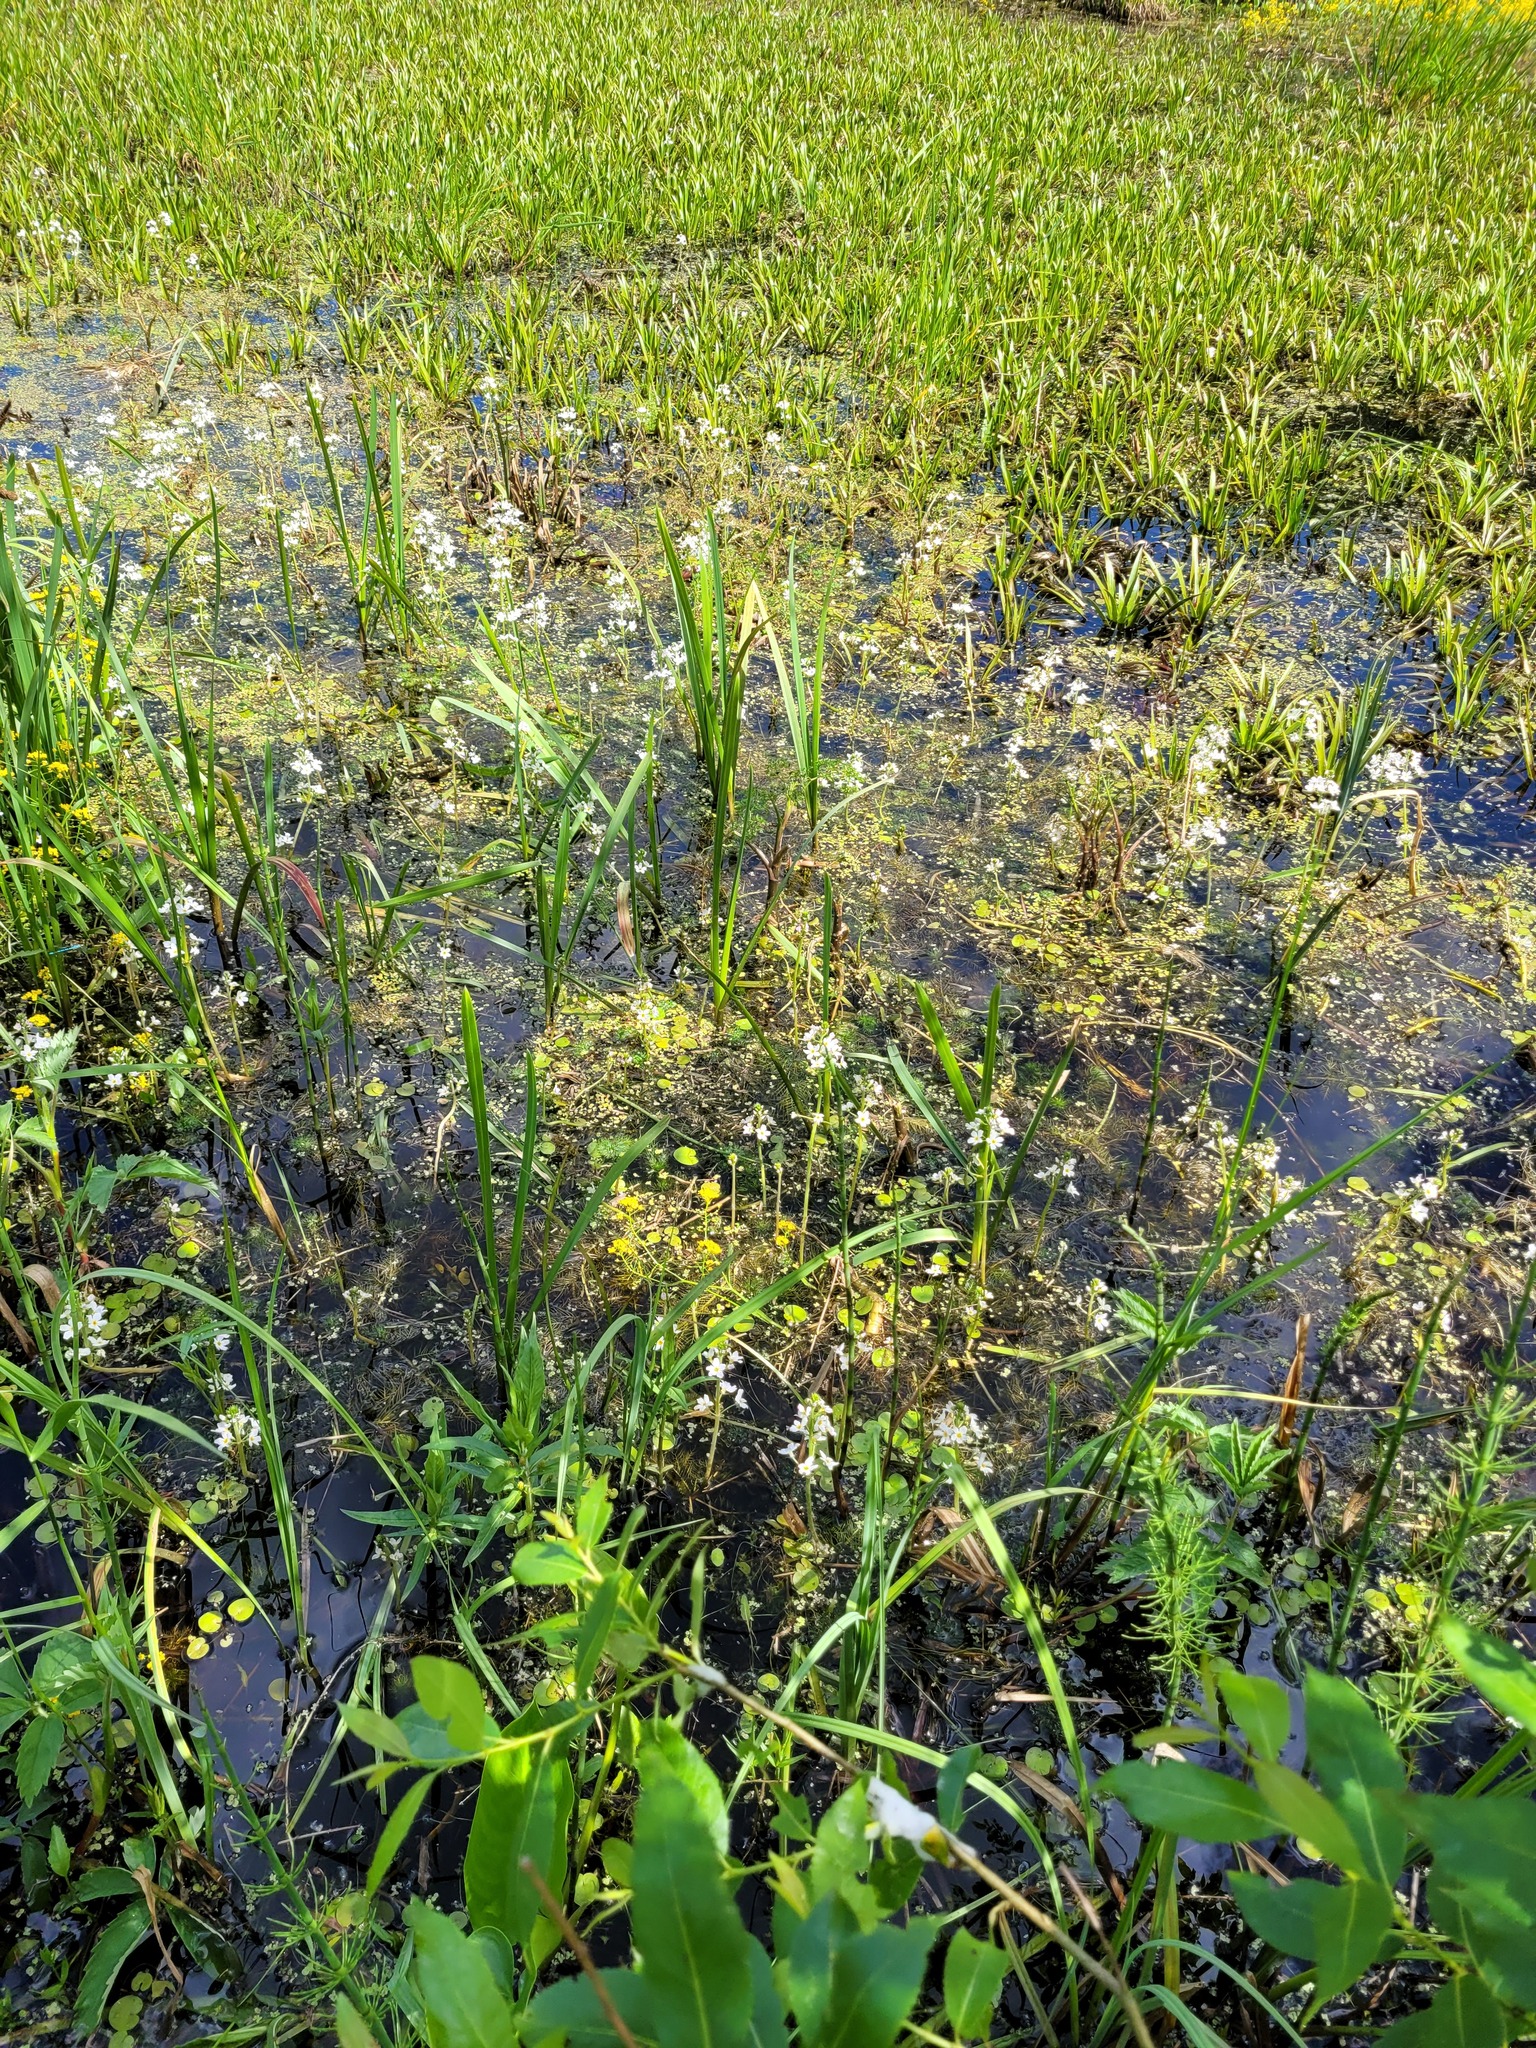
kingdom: Plantae
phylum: Tracheophyta
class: Magnoliopsida
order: Ericales
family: Primulaceae
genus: Hottonia
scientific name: Hottonia palustris
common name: Water-violet
